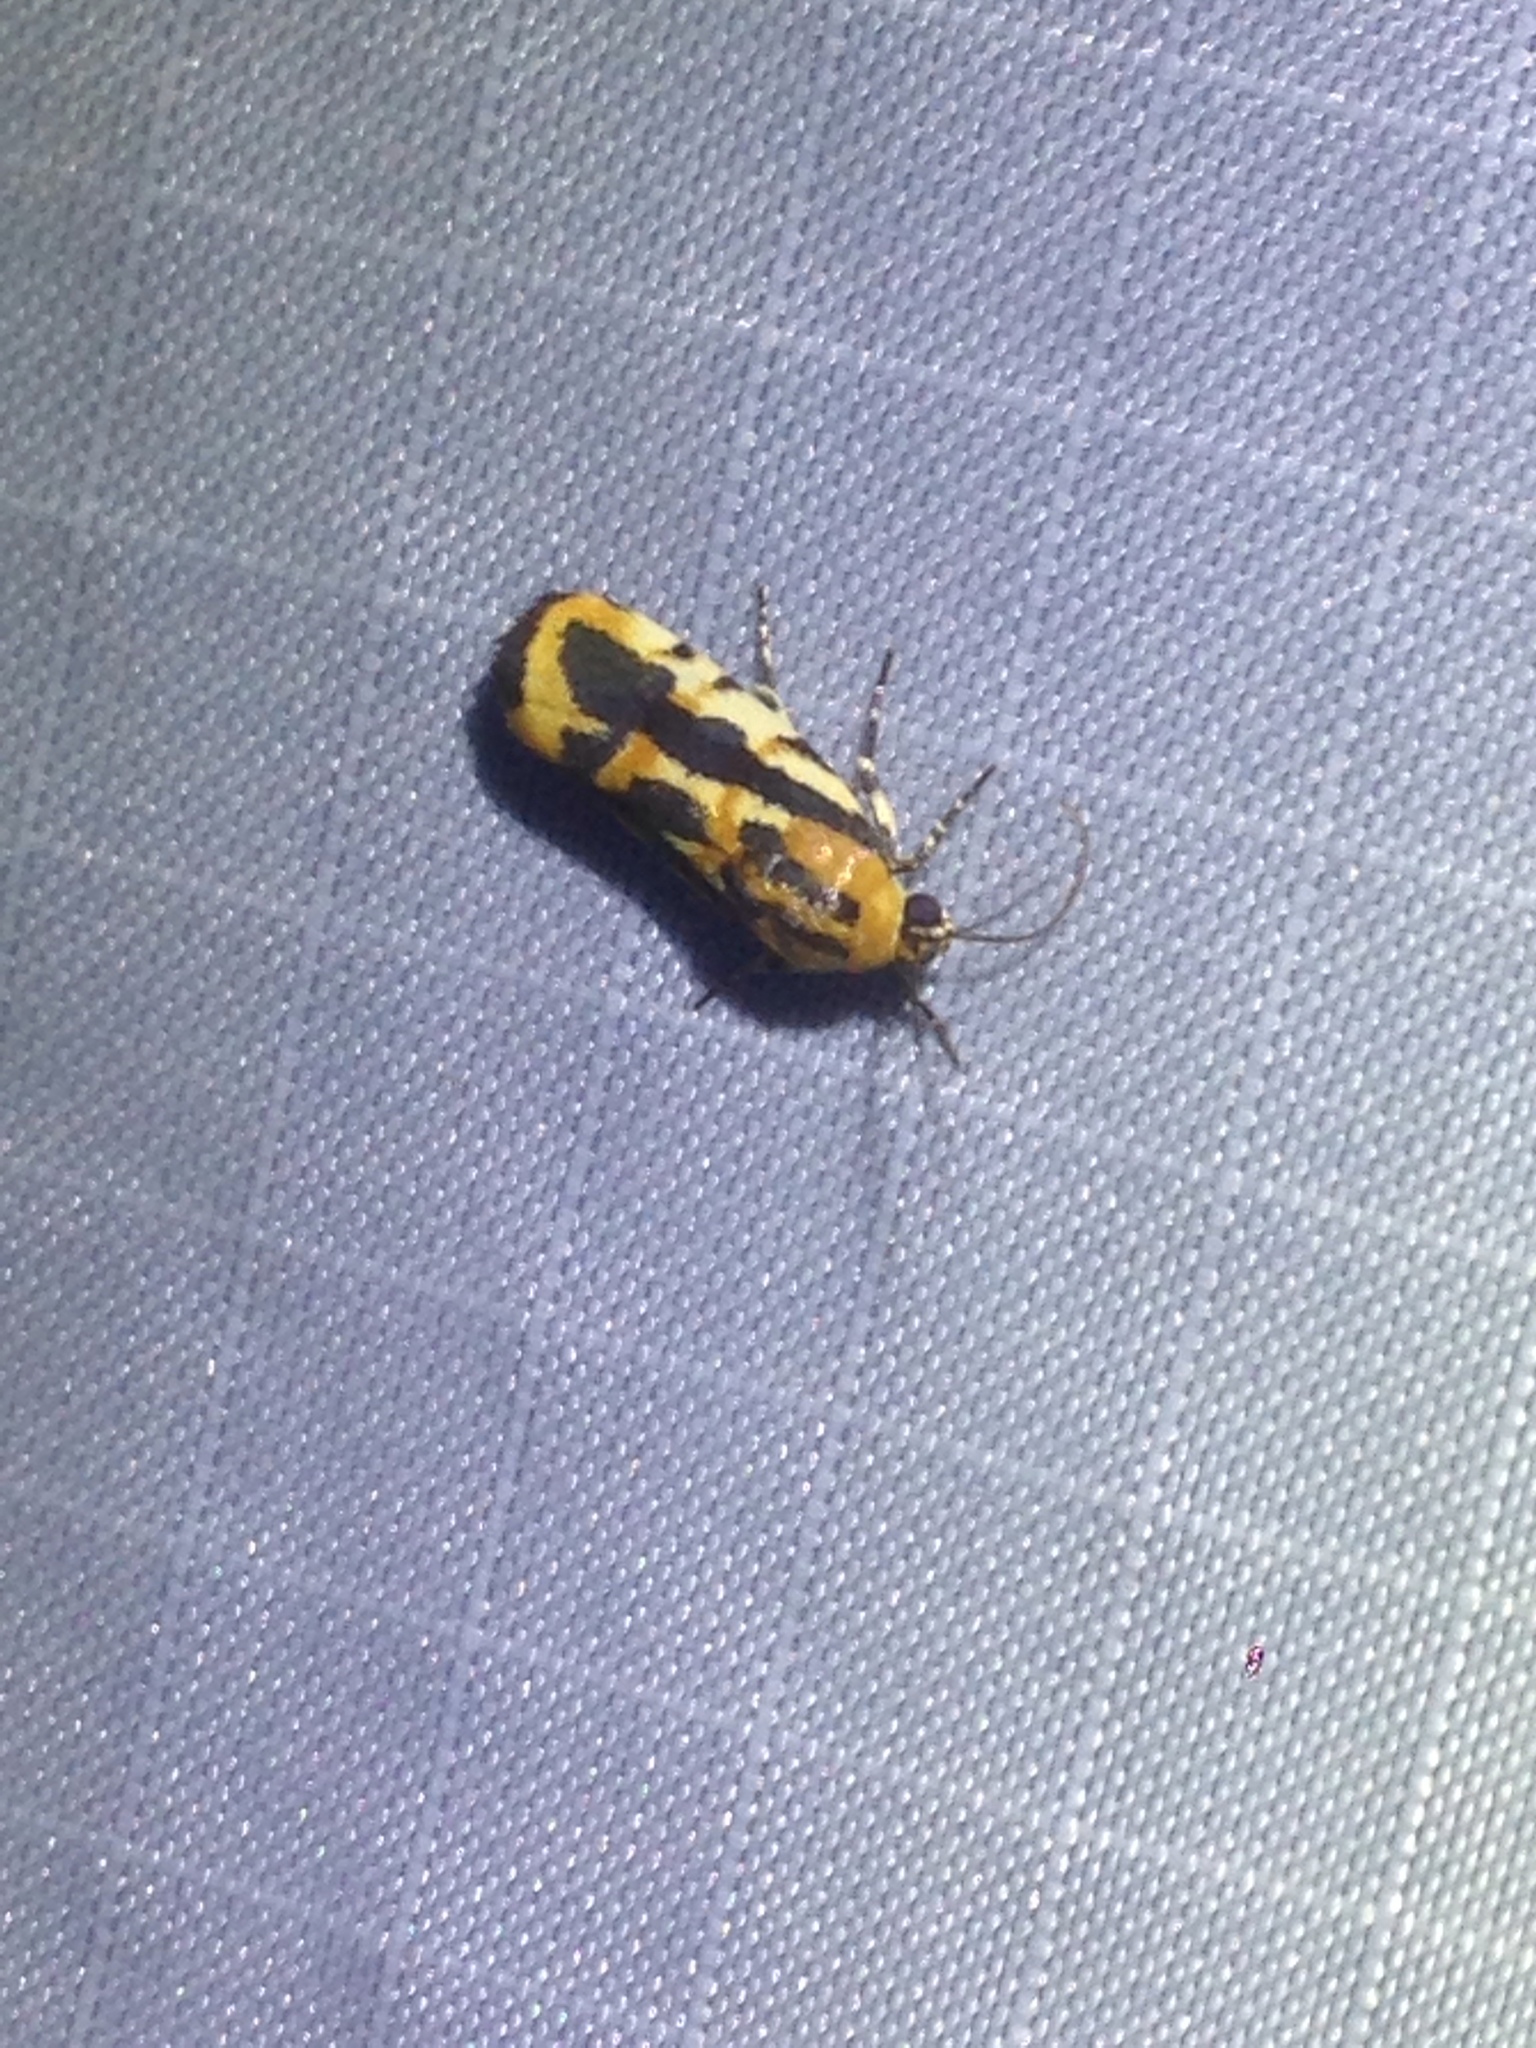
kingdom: Animalia
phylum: Arthropoda
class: Insecta
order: Lepidoptera
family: Noctuidae
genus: Acontia
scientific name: Acontia leo
